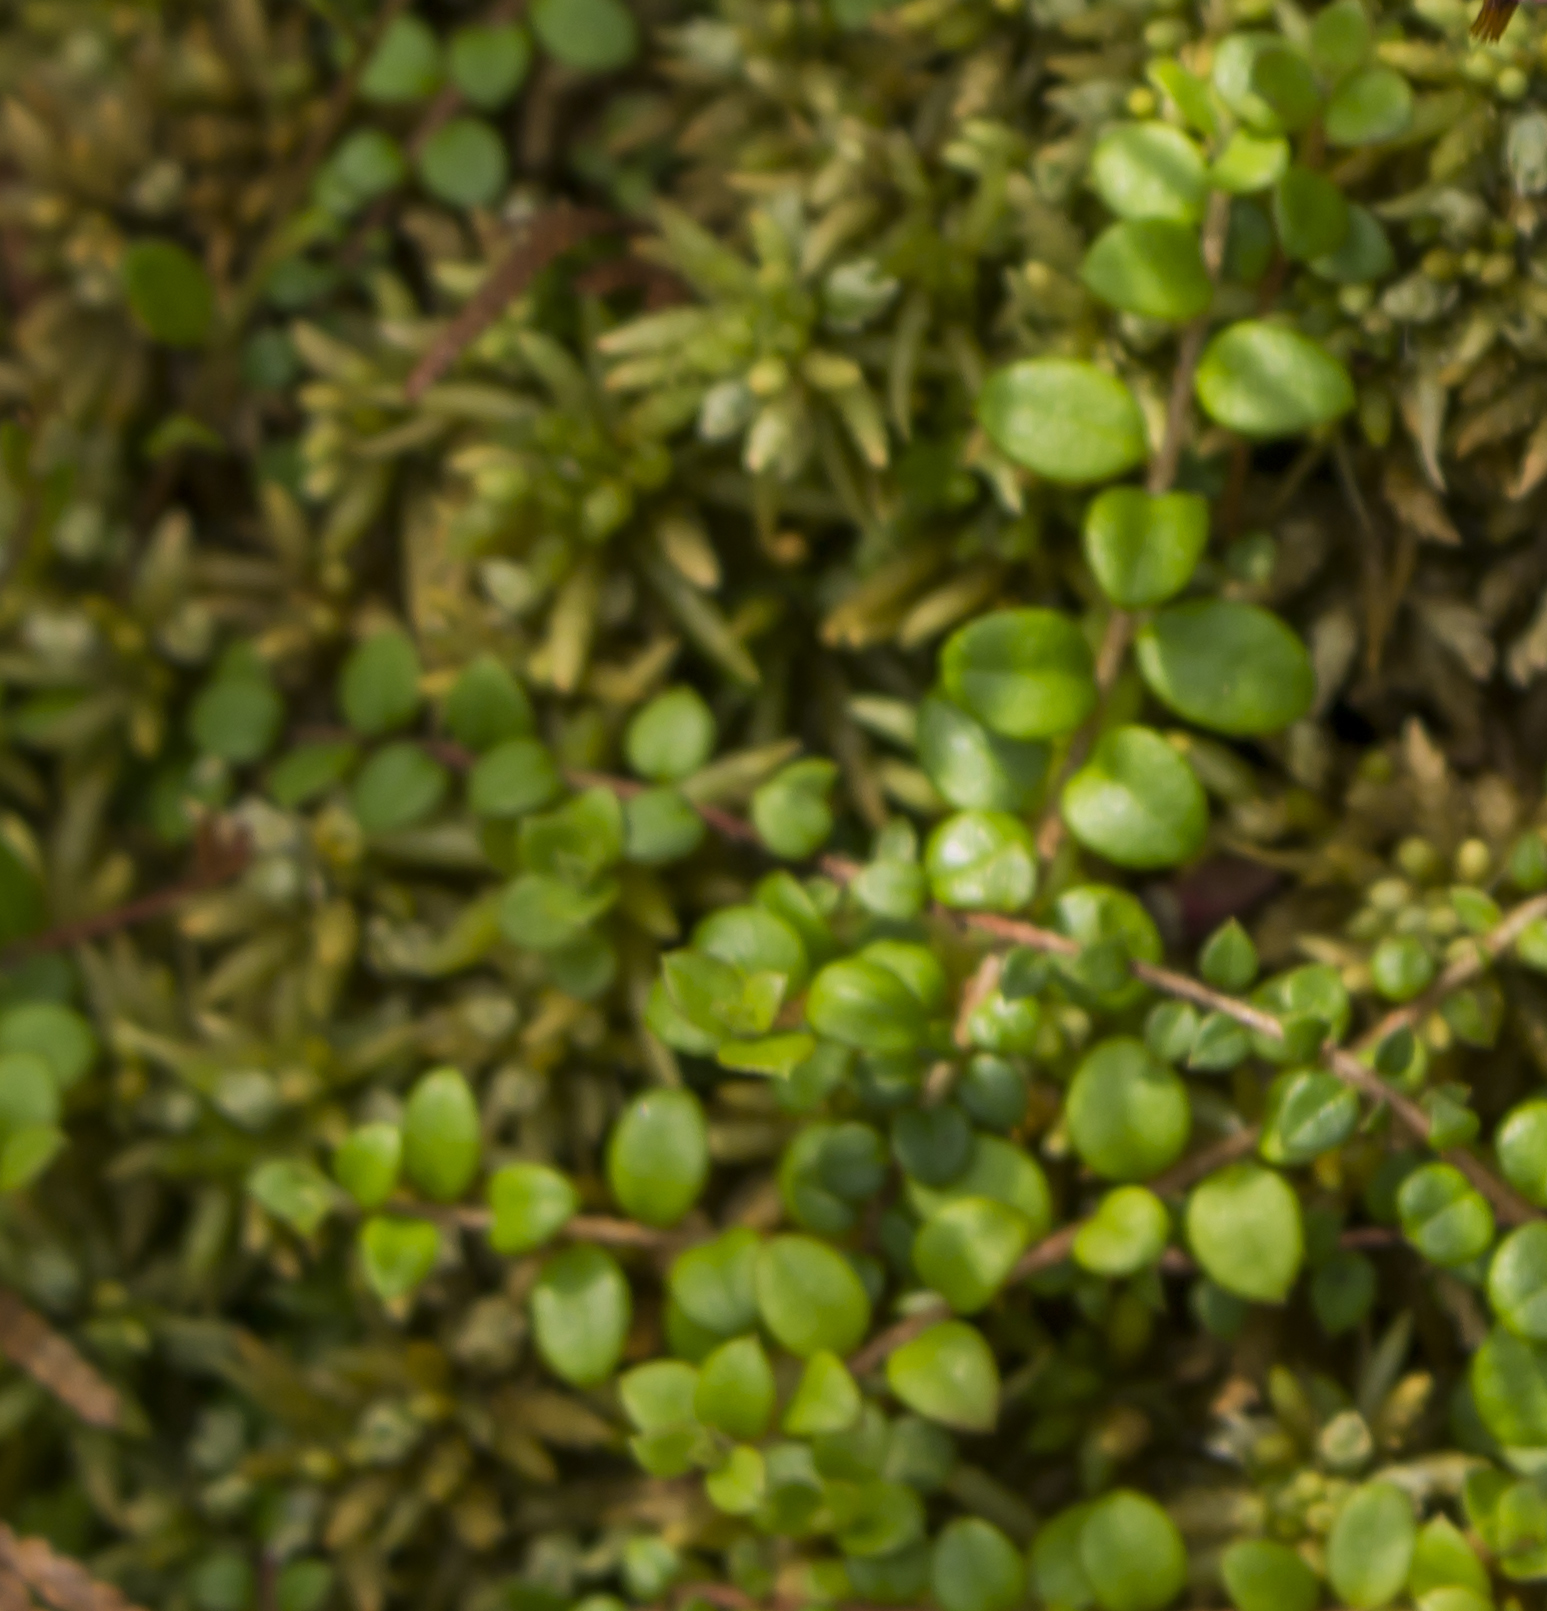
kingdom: Plantae
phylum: Tracheophyta
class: Magnoliopsida
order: Ericales
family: Ericaceae
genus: Gaultheria
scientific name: Gaultheria hispidula
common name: Cancer wintergreen
